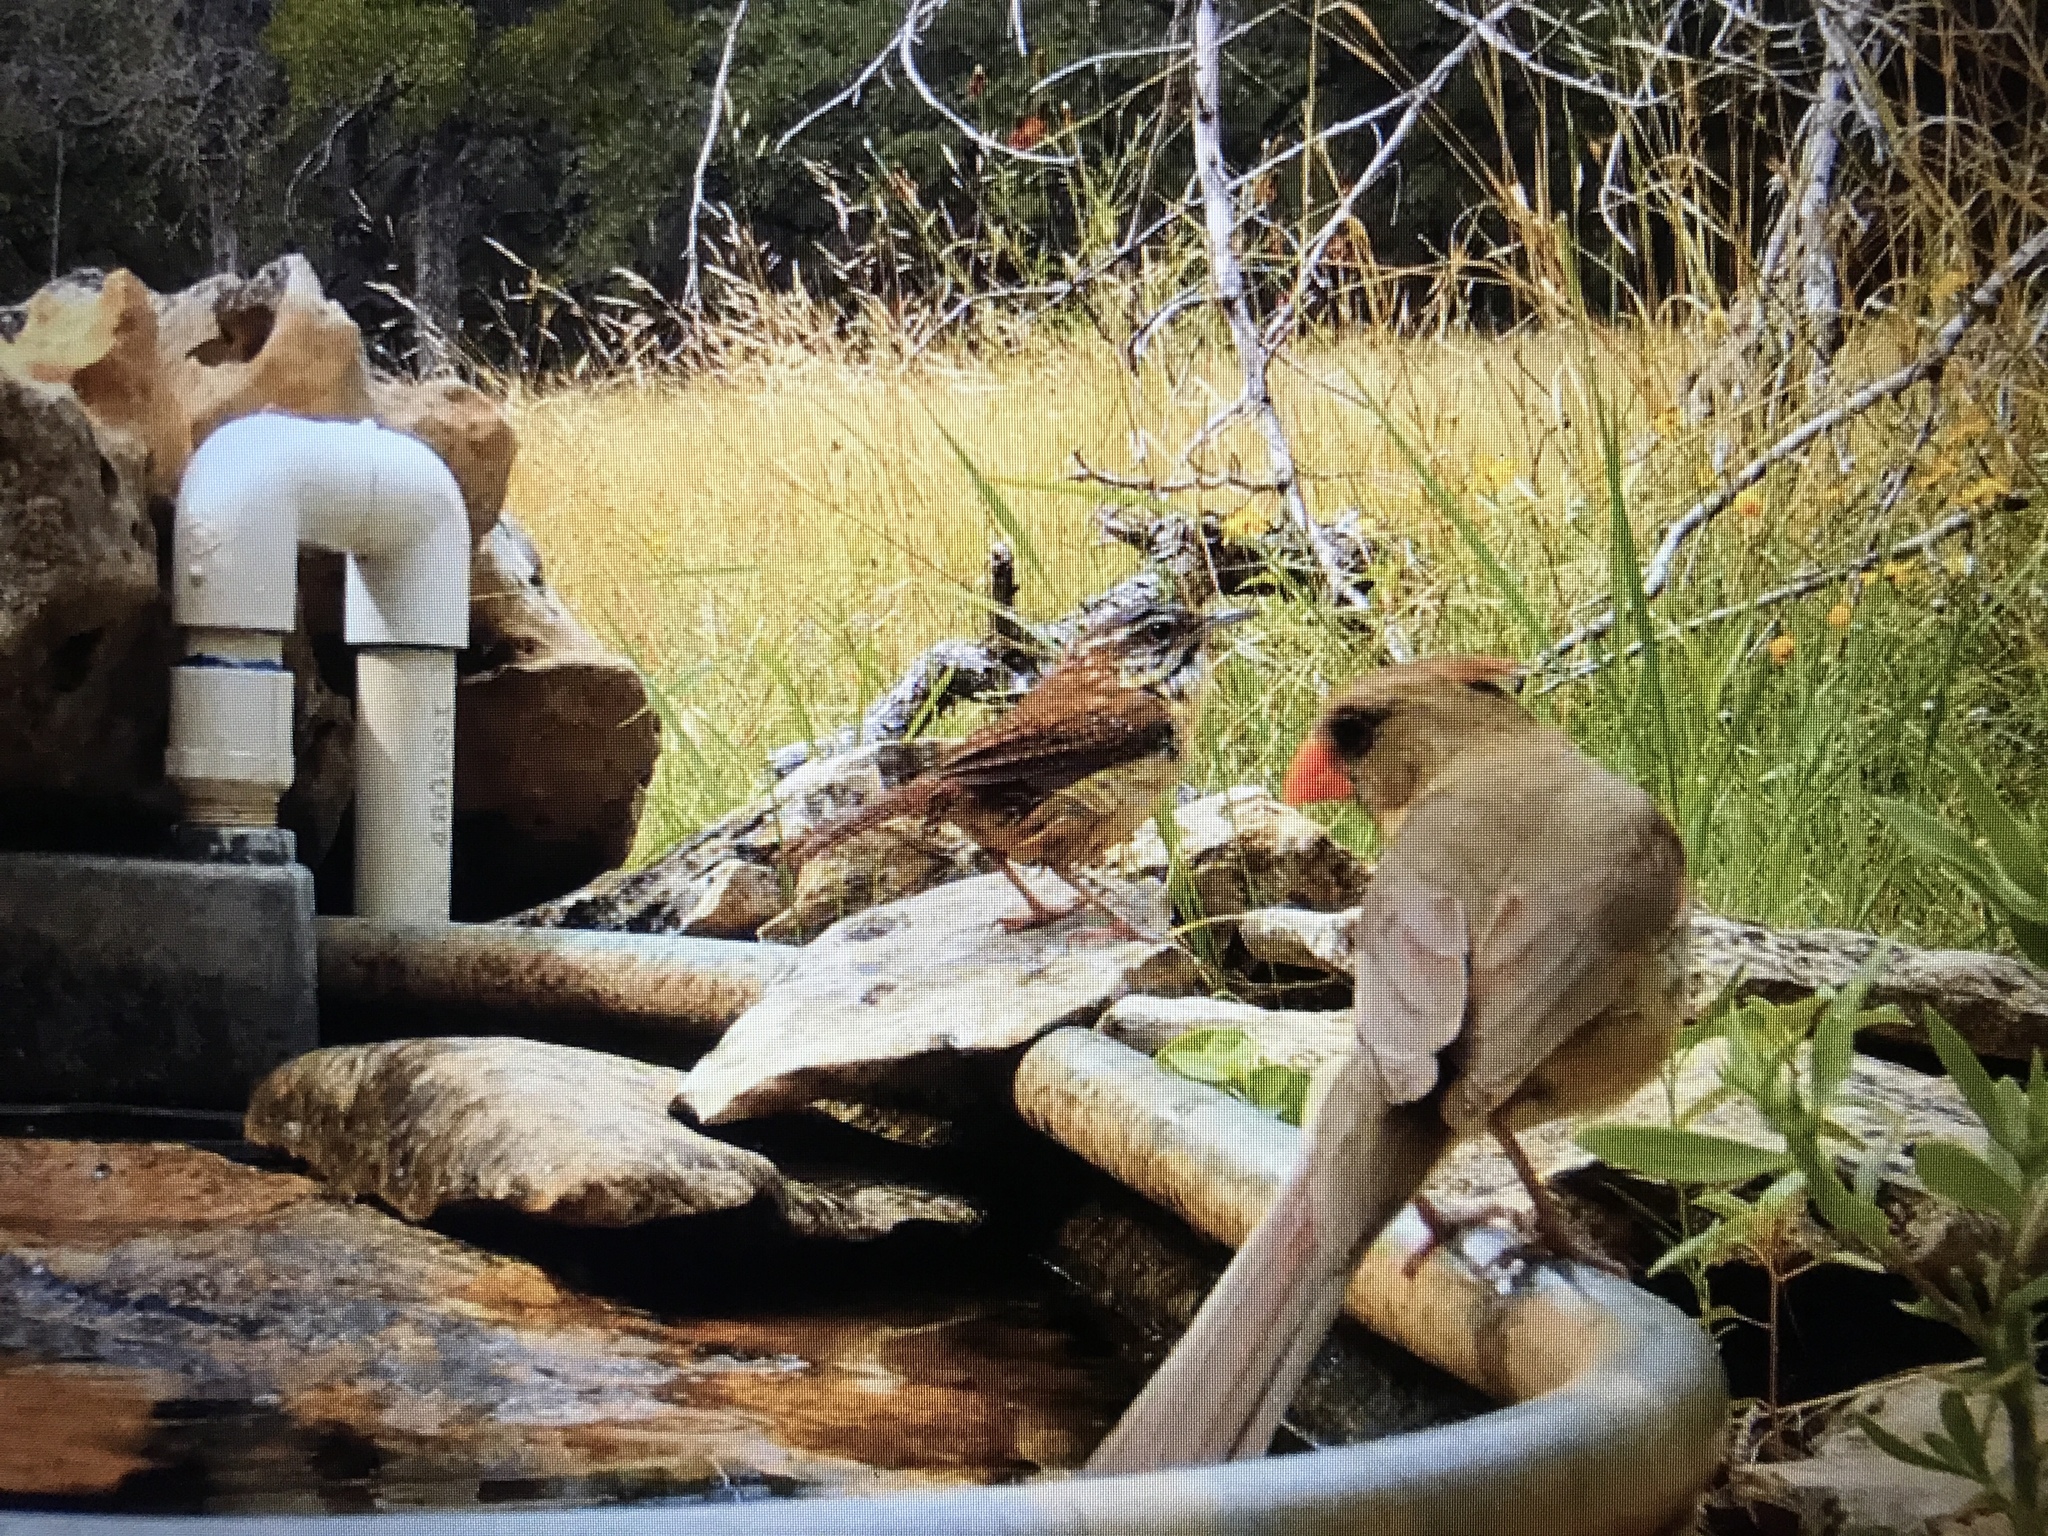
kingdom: Animalia
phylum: Chordata
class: Aves
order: Passeriformes
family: Troglodytidae
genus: Thryothorus
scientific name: Thryothorus ludovicianus
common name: Carolina wren
